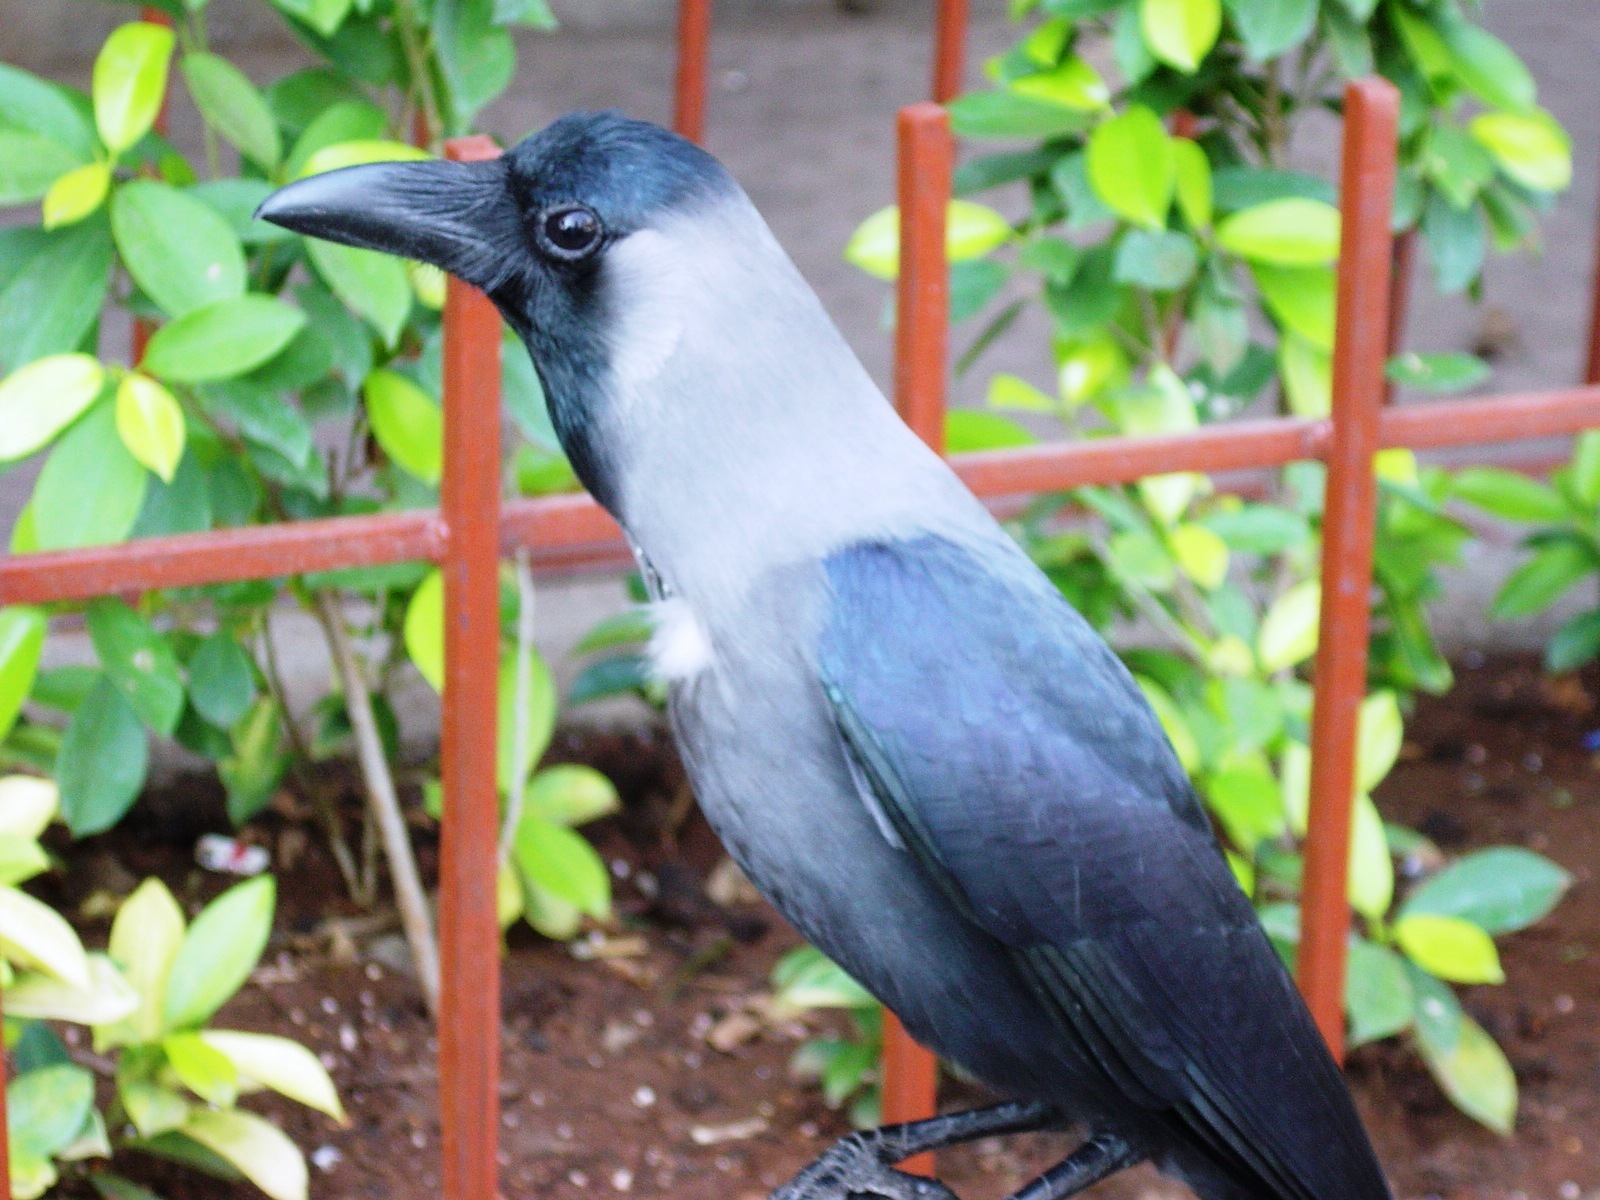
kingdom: Animalia
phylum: Chordata
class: Aves
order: Passeriformes
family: Corvidae
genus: Corvus
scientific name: Corvus splendens
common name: House crow
